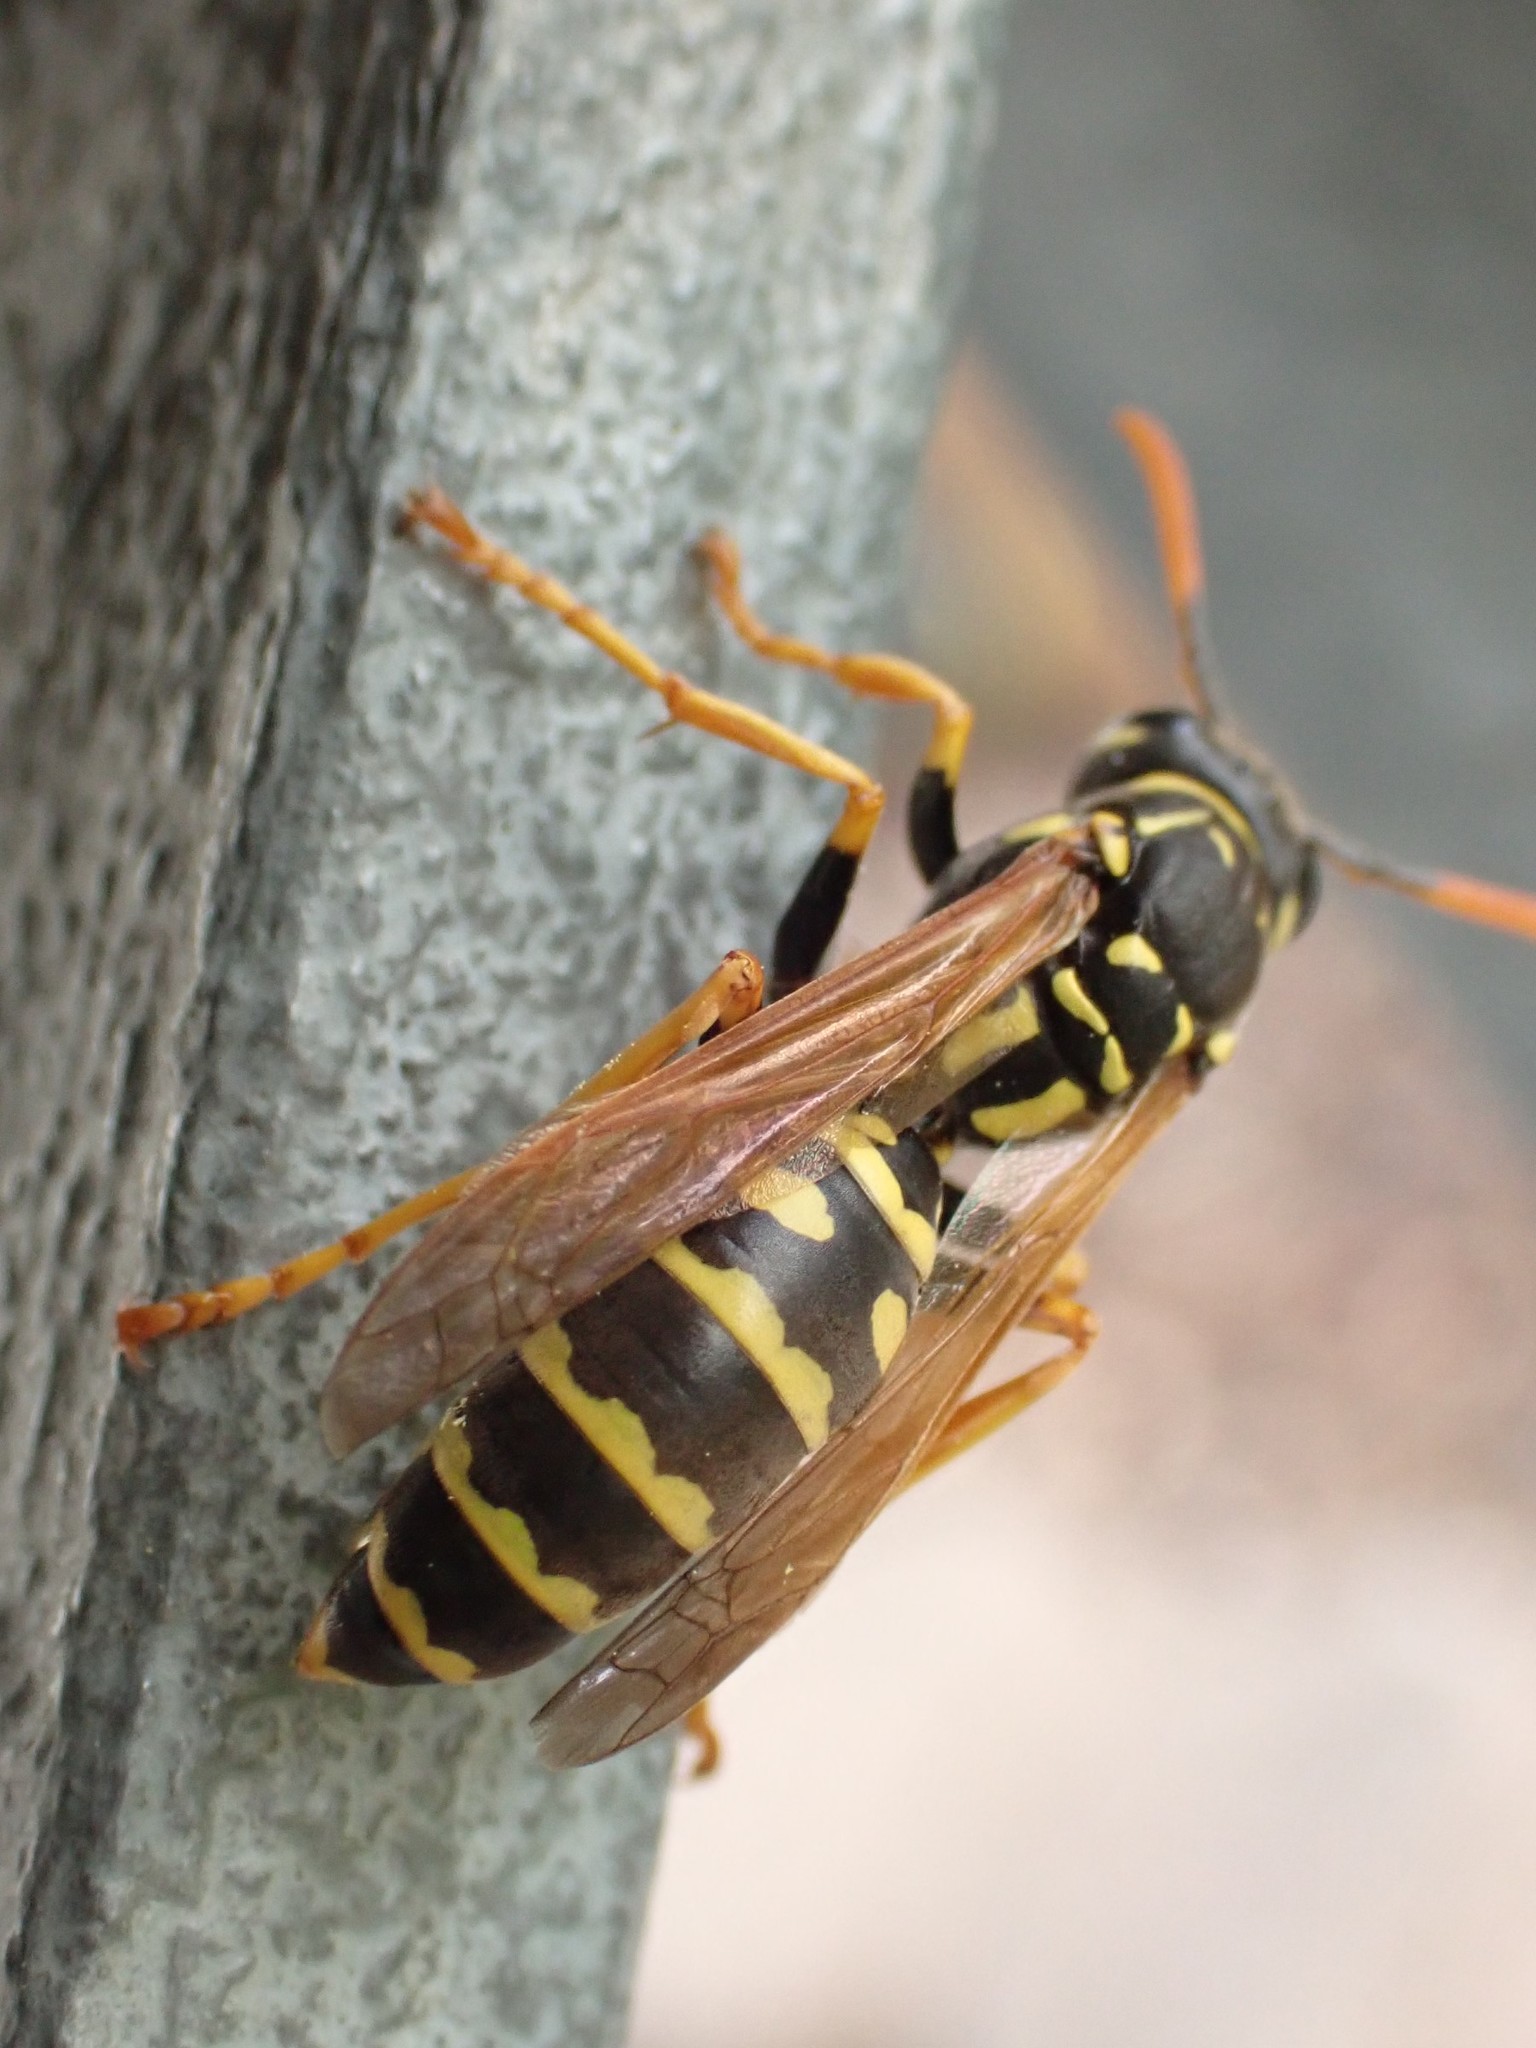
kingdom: Animalia
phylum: Arthropoda
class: Insecta
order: Hymenoptera
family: Eumenidae
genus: Polistes
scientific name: Polistes dominula
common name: Paper wasp
